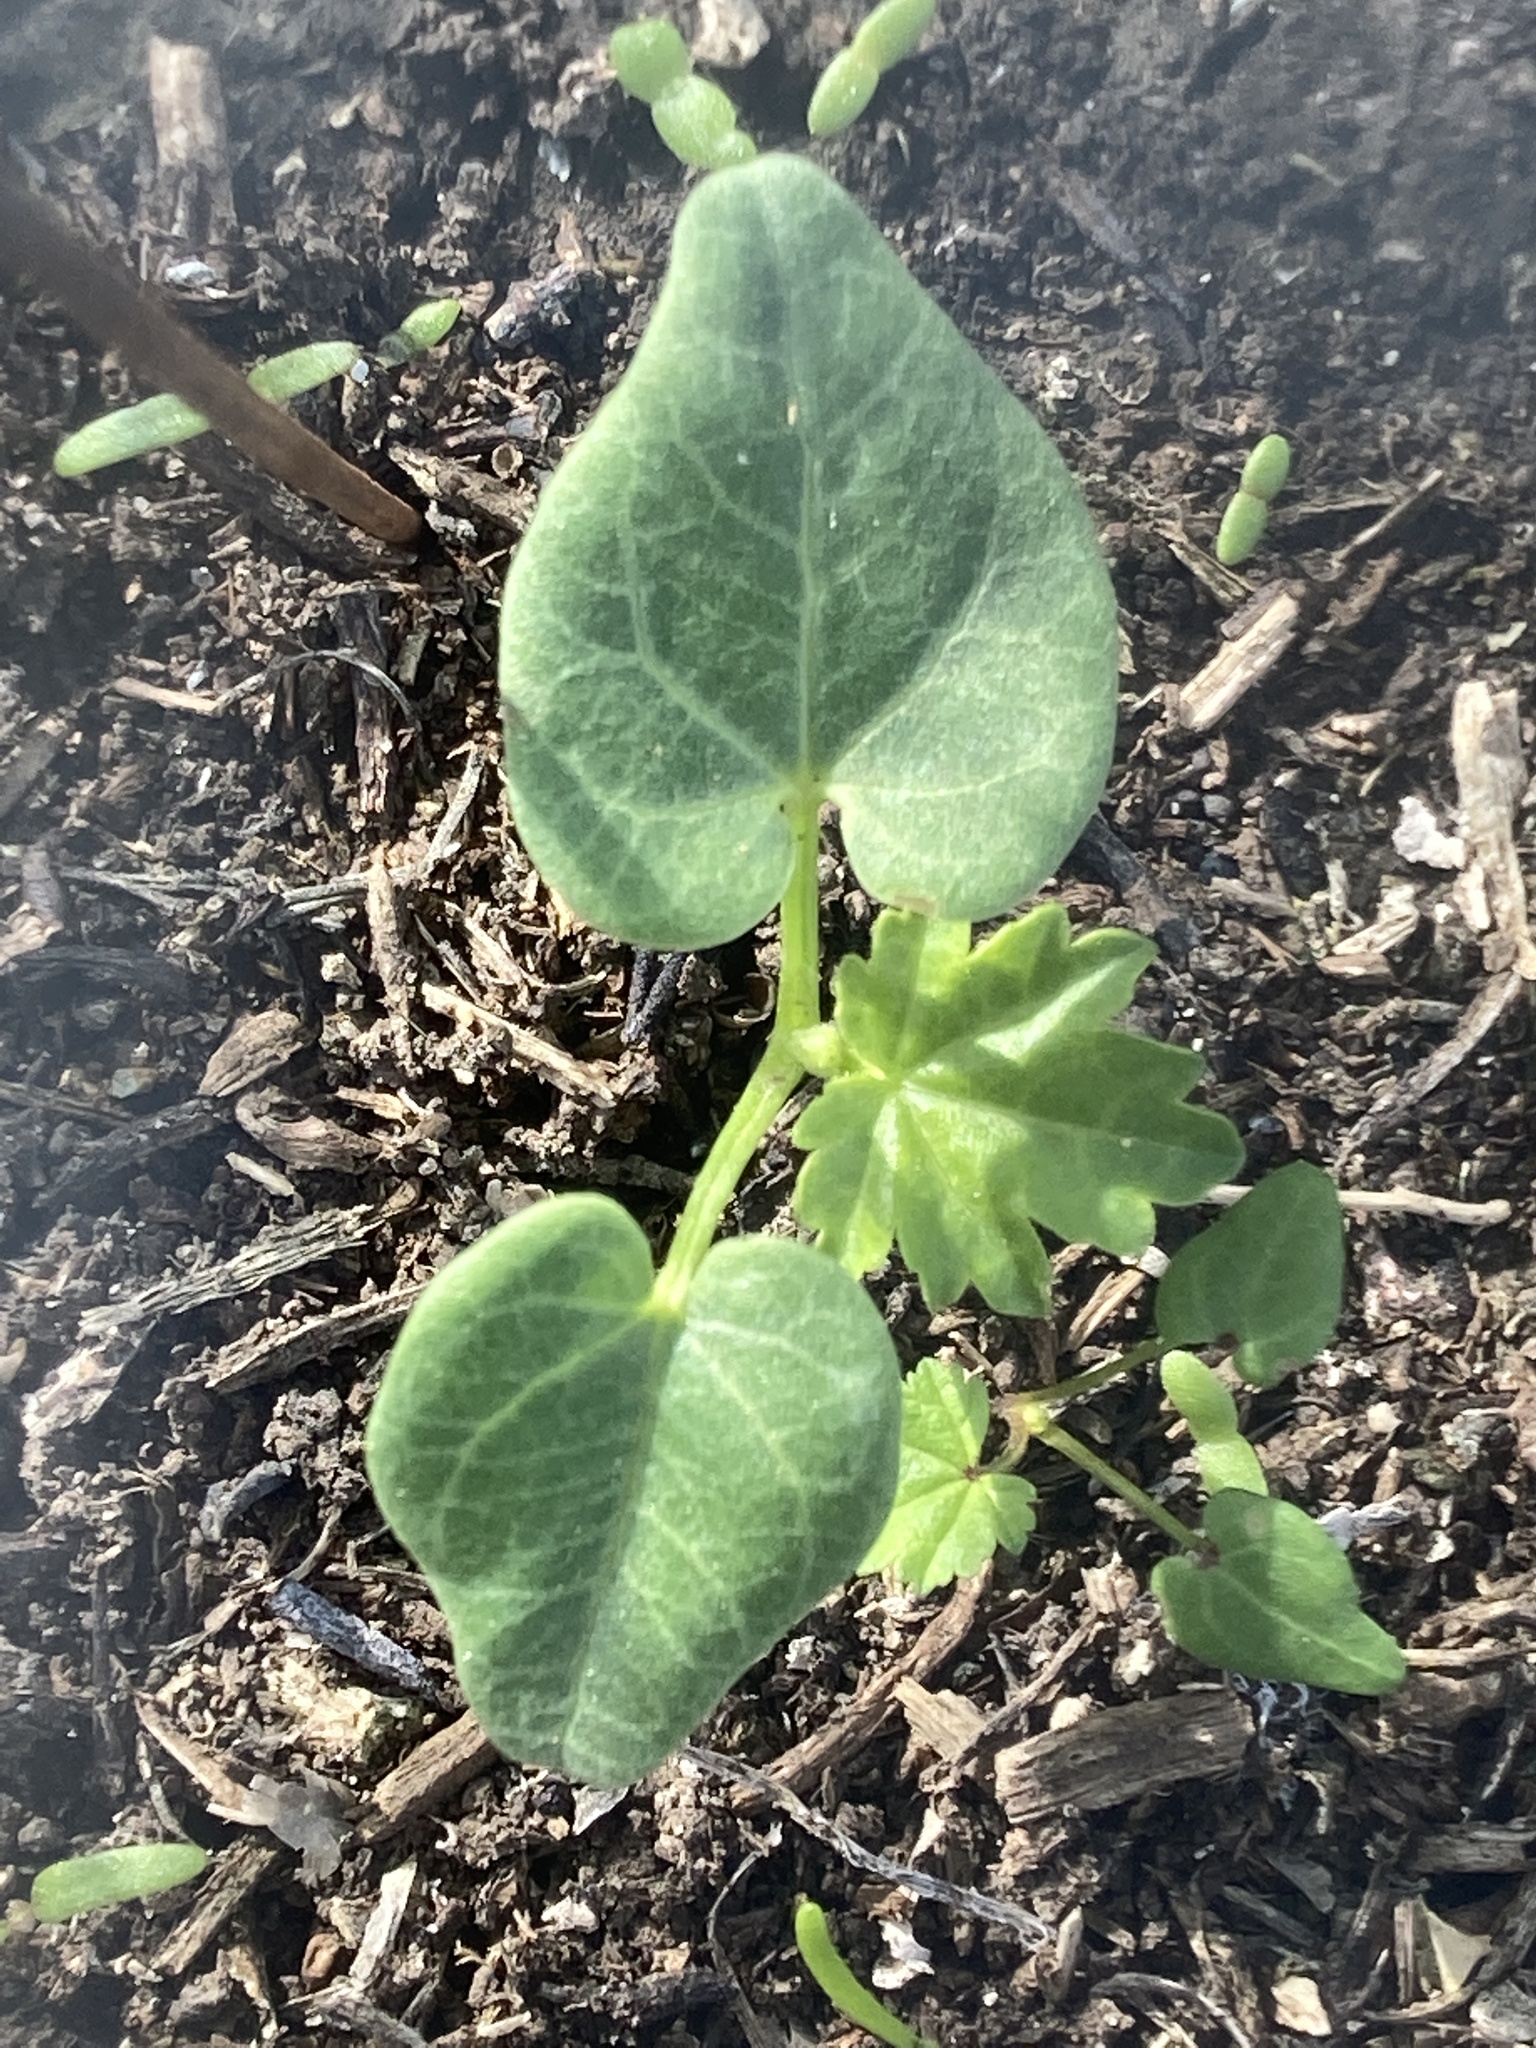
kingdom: Plantae
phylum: Tracheophyta
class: Magnoliopsida
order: Malvales
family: Malvaceae
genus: Malva
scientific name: Malva assurgentiflora
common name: Island mallow
